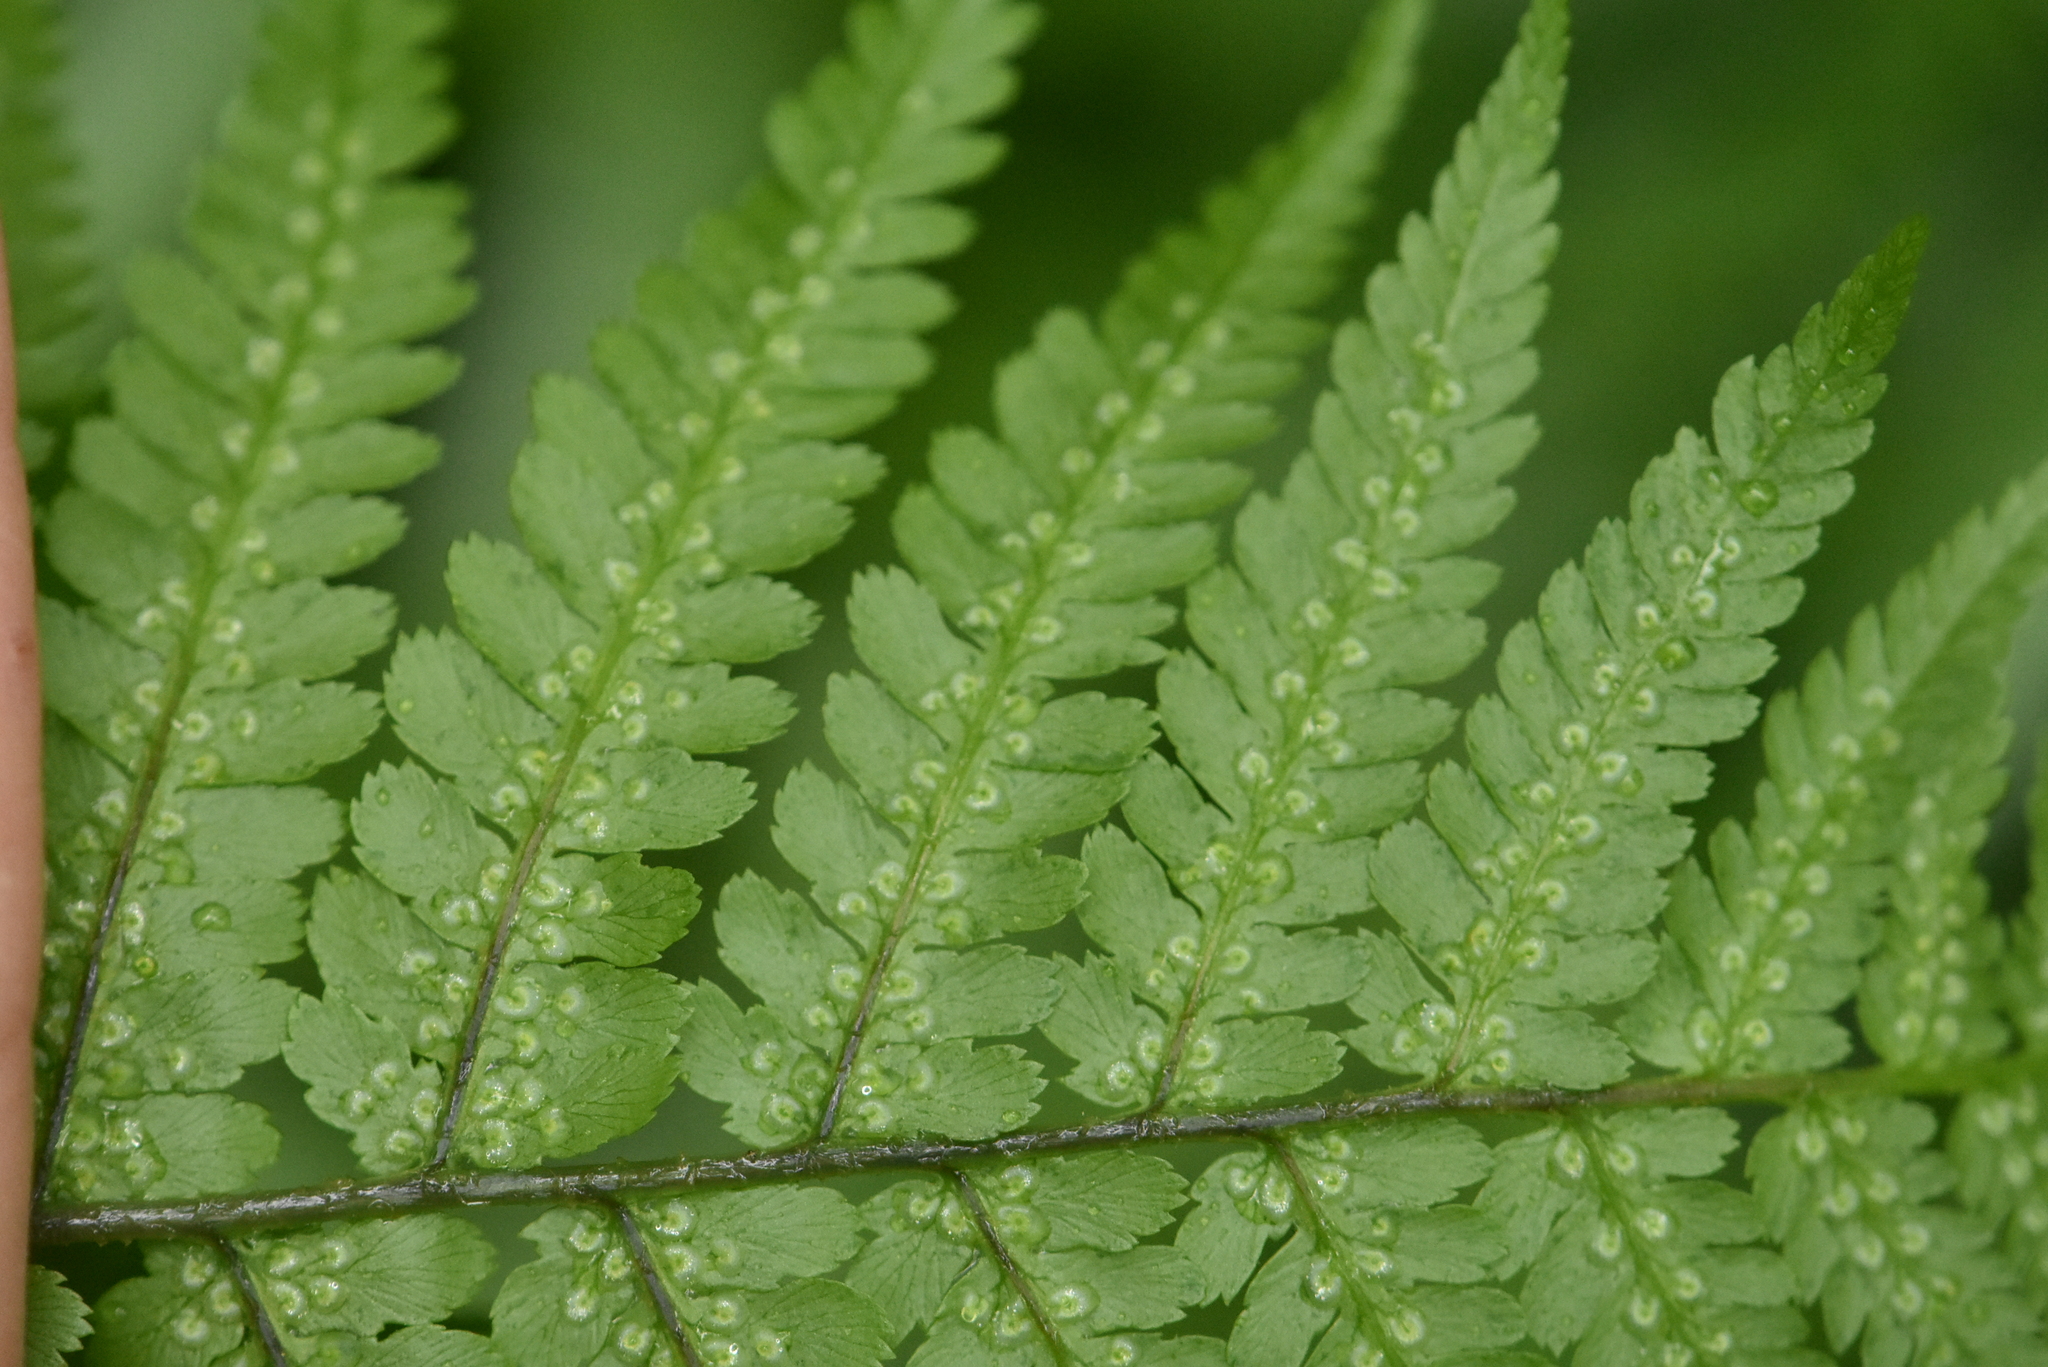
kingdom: Plantae
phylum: Tracheophyta
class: Polypodiopsida
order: Polypodiales
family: Dryopteridaceae
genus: Dryopteris
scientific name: Dryopteris filix-mas
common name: Male fern
